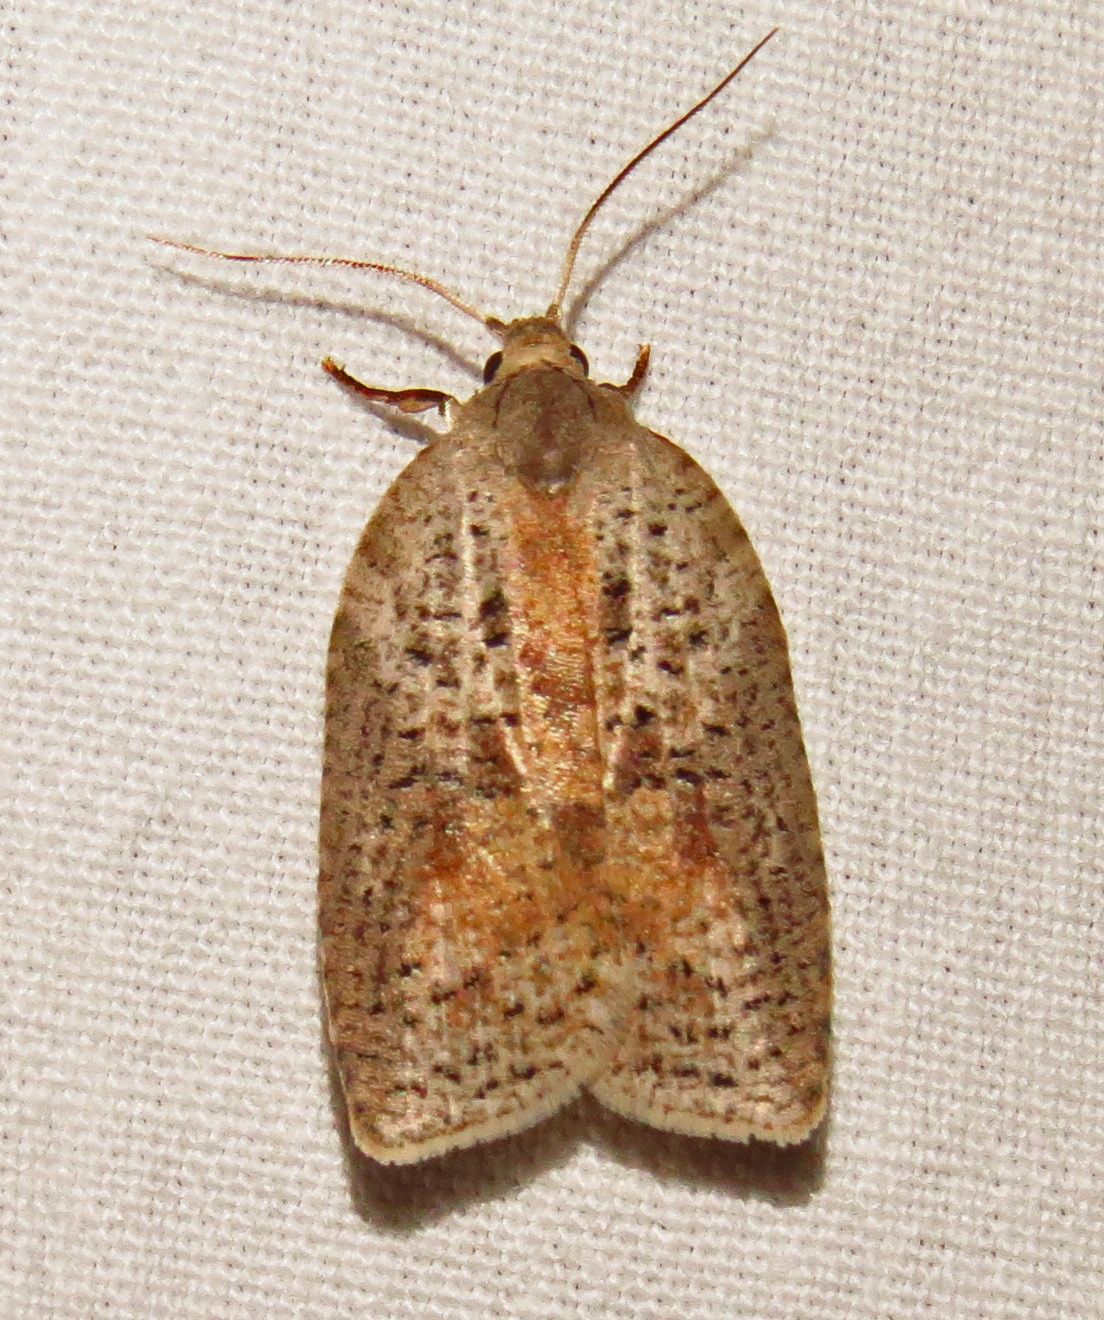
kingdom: Animalia
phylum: Arthropoda
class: Insecta
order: Lepidoptera
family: Tortricidae
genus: Amorbia
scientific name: Amorbia humerosana
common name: White-lined leafroller moth
